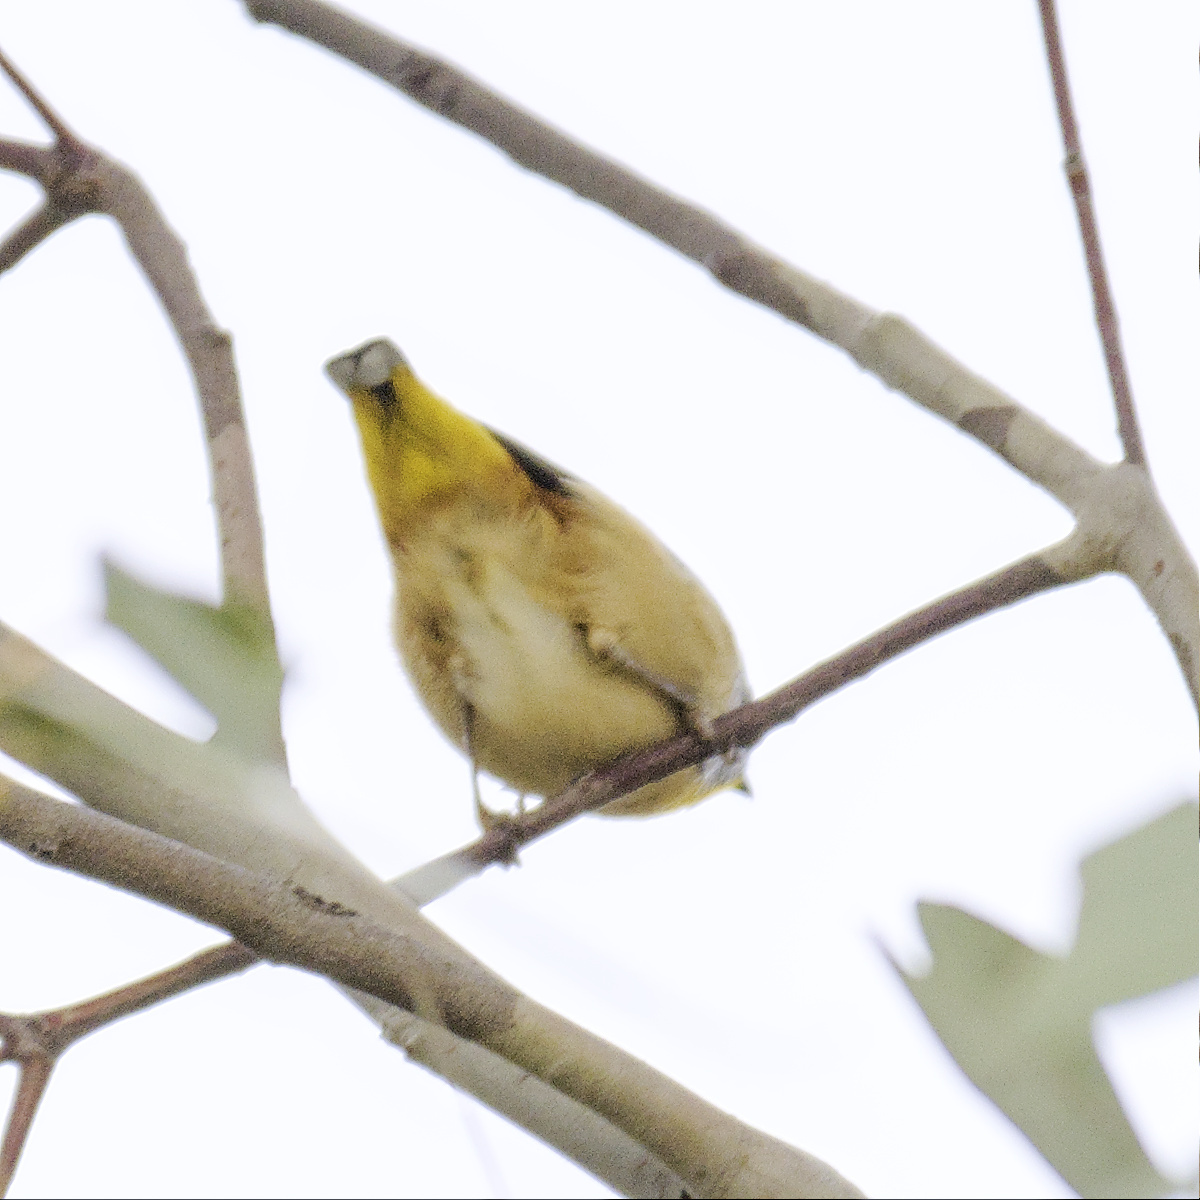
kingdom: Animalia
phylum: Chordata
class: Aves
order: Passeriformes
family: Pardalotidae
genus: Pardalotus
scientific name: Pardalotus punctatus
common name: Spotted pardalote
